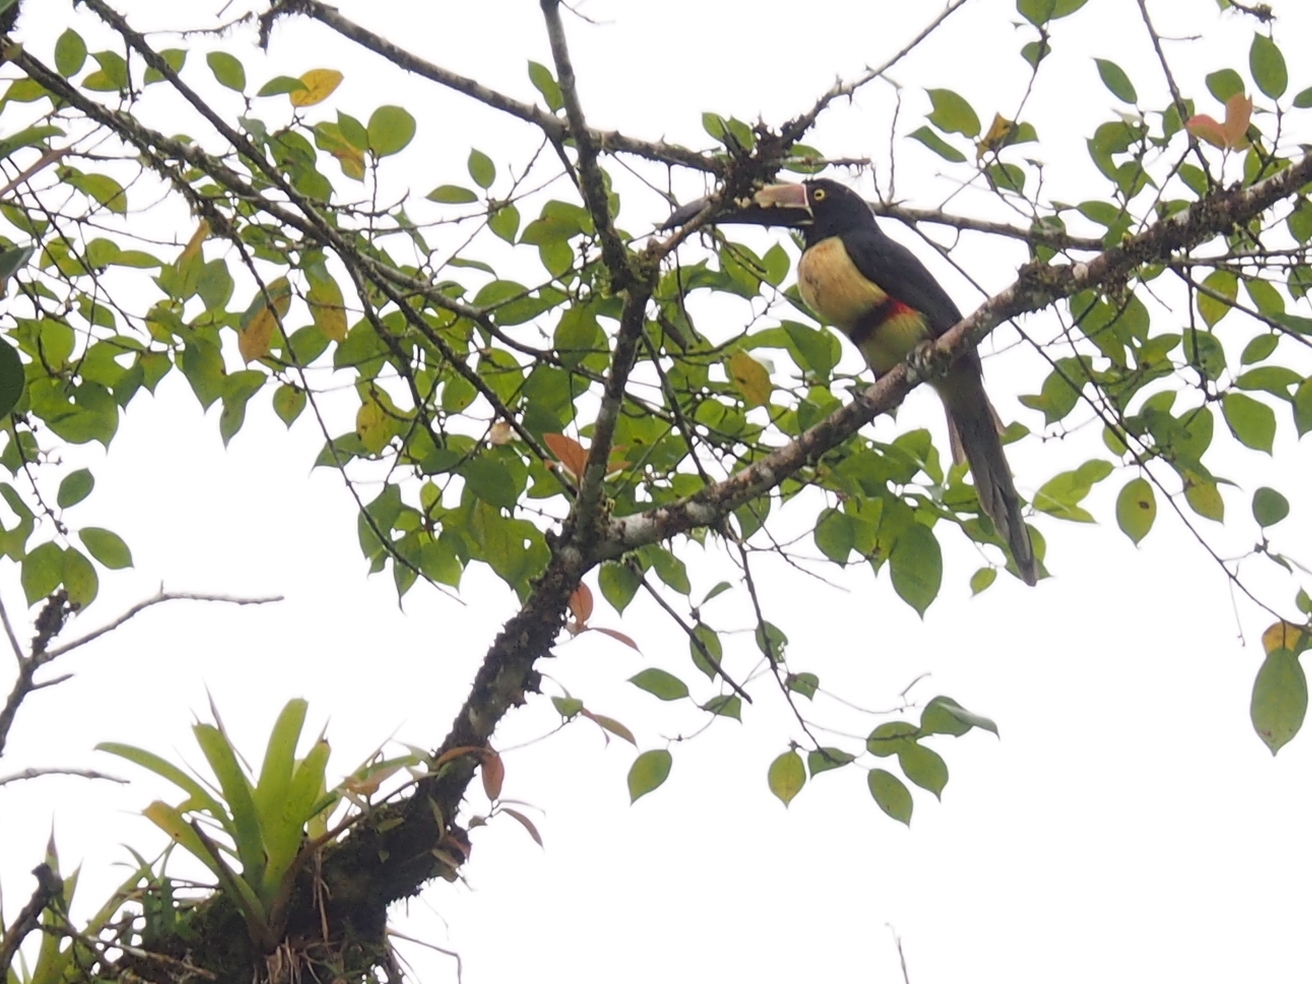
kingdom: Animalia
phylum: Chordata
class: Aves
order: Piciformes
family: Ramphastidae
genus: Pteroglossus
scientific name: Pteroglossus torquatus
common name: Collared aracari
